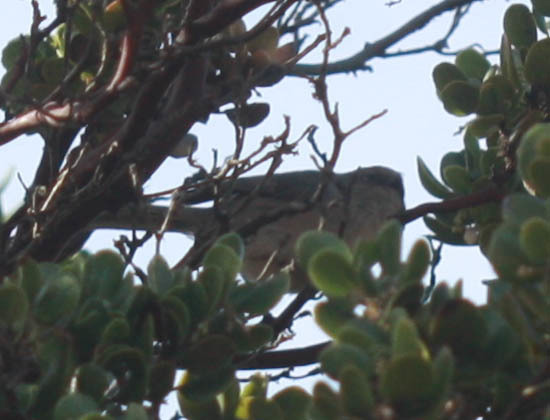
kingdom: Animalia
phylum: Chordata
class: Aves
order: Passeriformes
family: Aegithalidae
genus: Psaltriparus
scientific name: Psaltriparus minimus
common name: American bushtit
